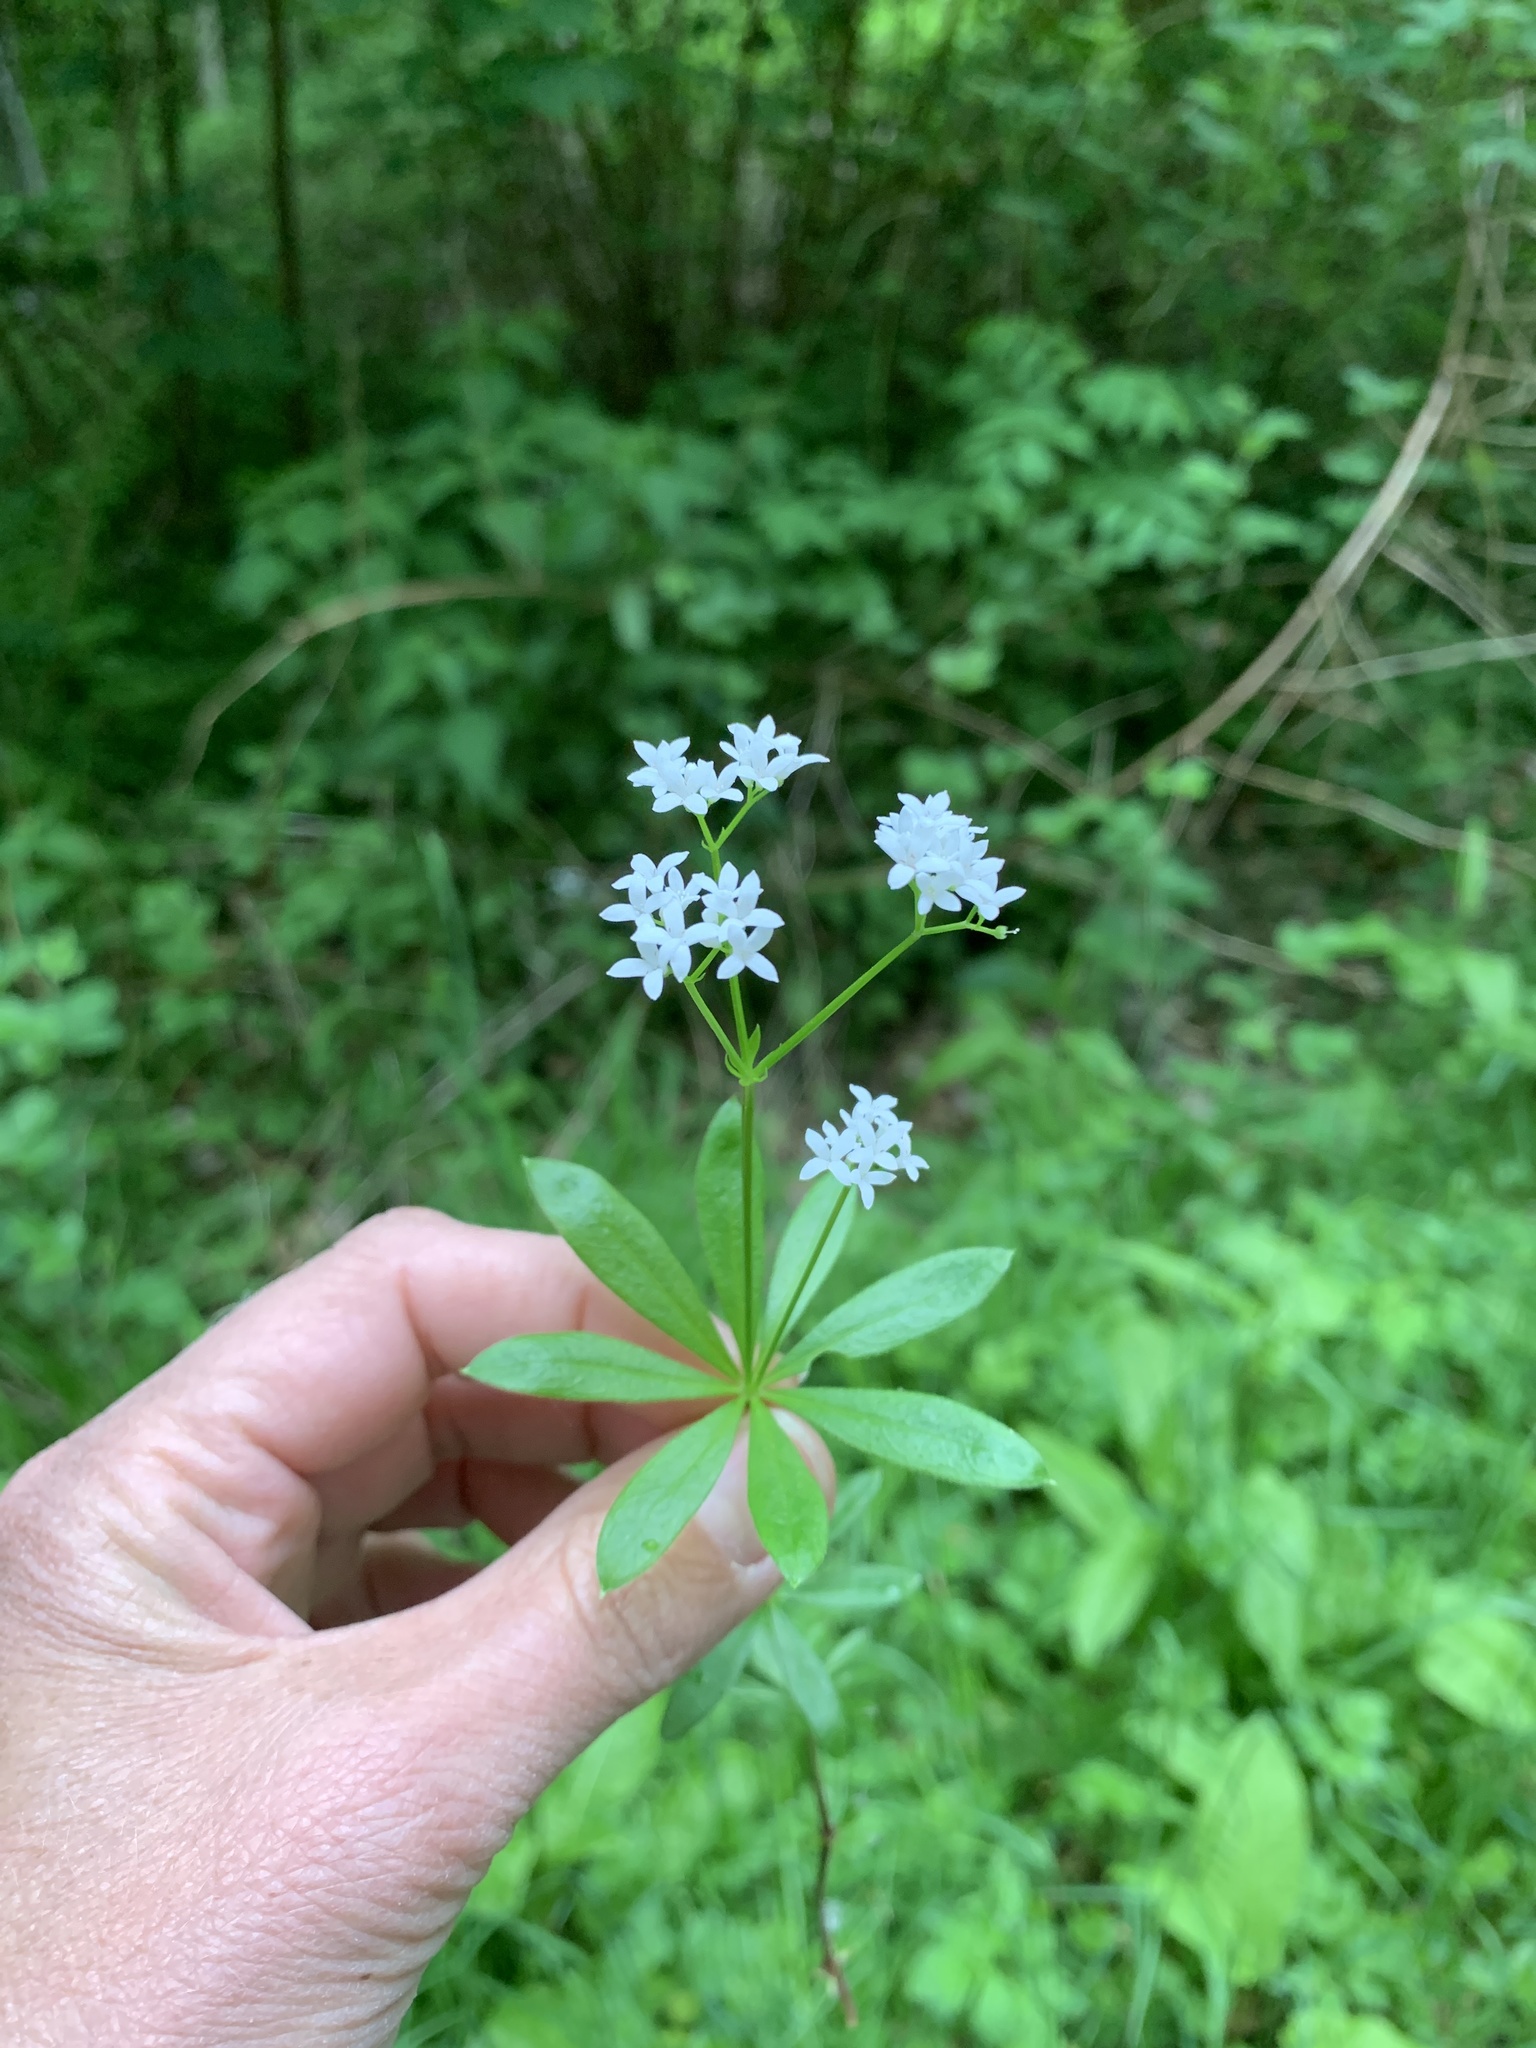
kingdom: Plantae
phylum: Tracheophyta
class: Magnoliopsida
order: Gentianales
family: Rubiaceae
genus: Galium
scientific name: Galium odoratum
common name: Sweet woodruff
